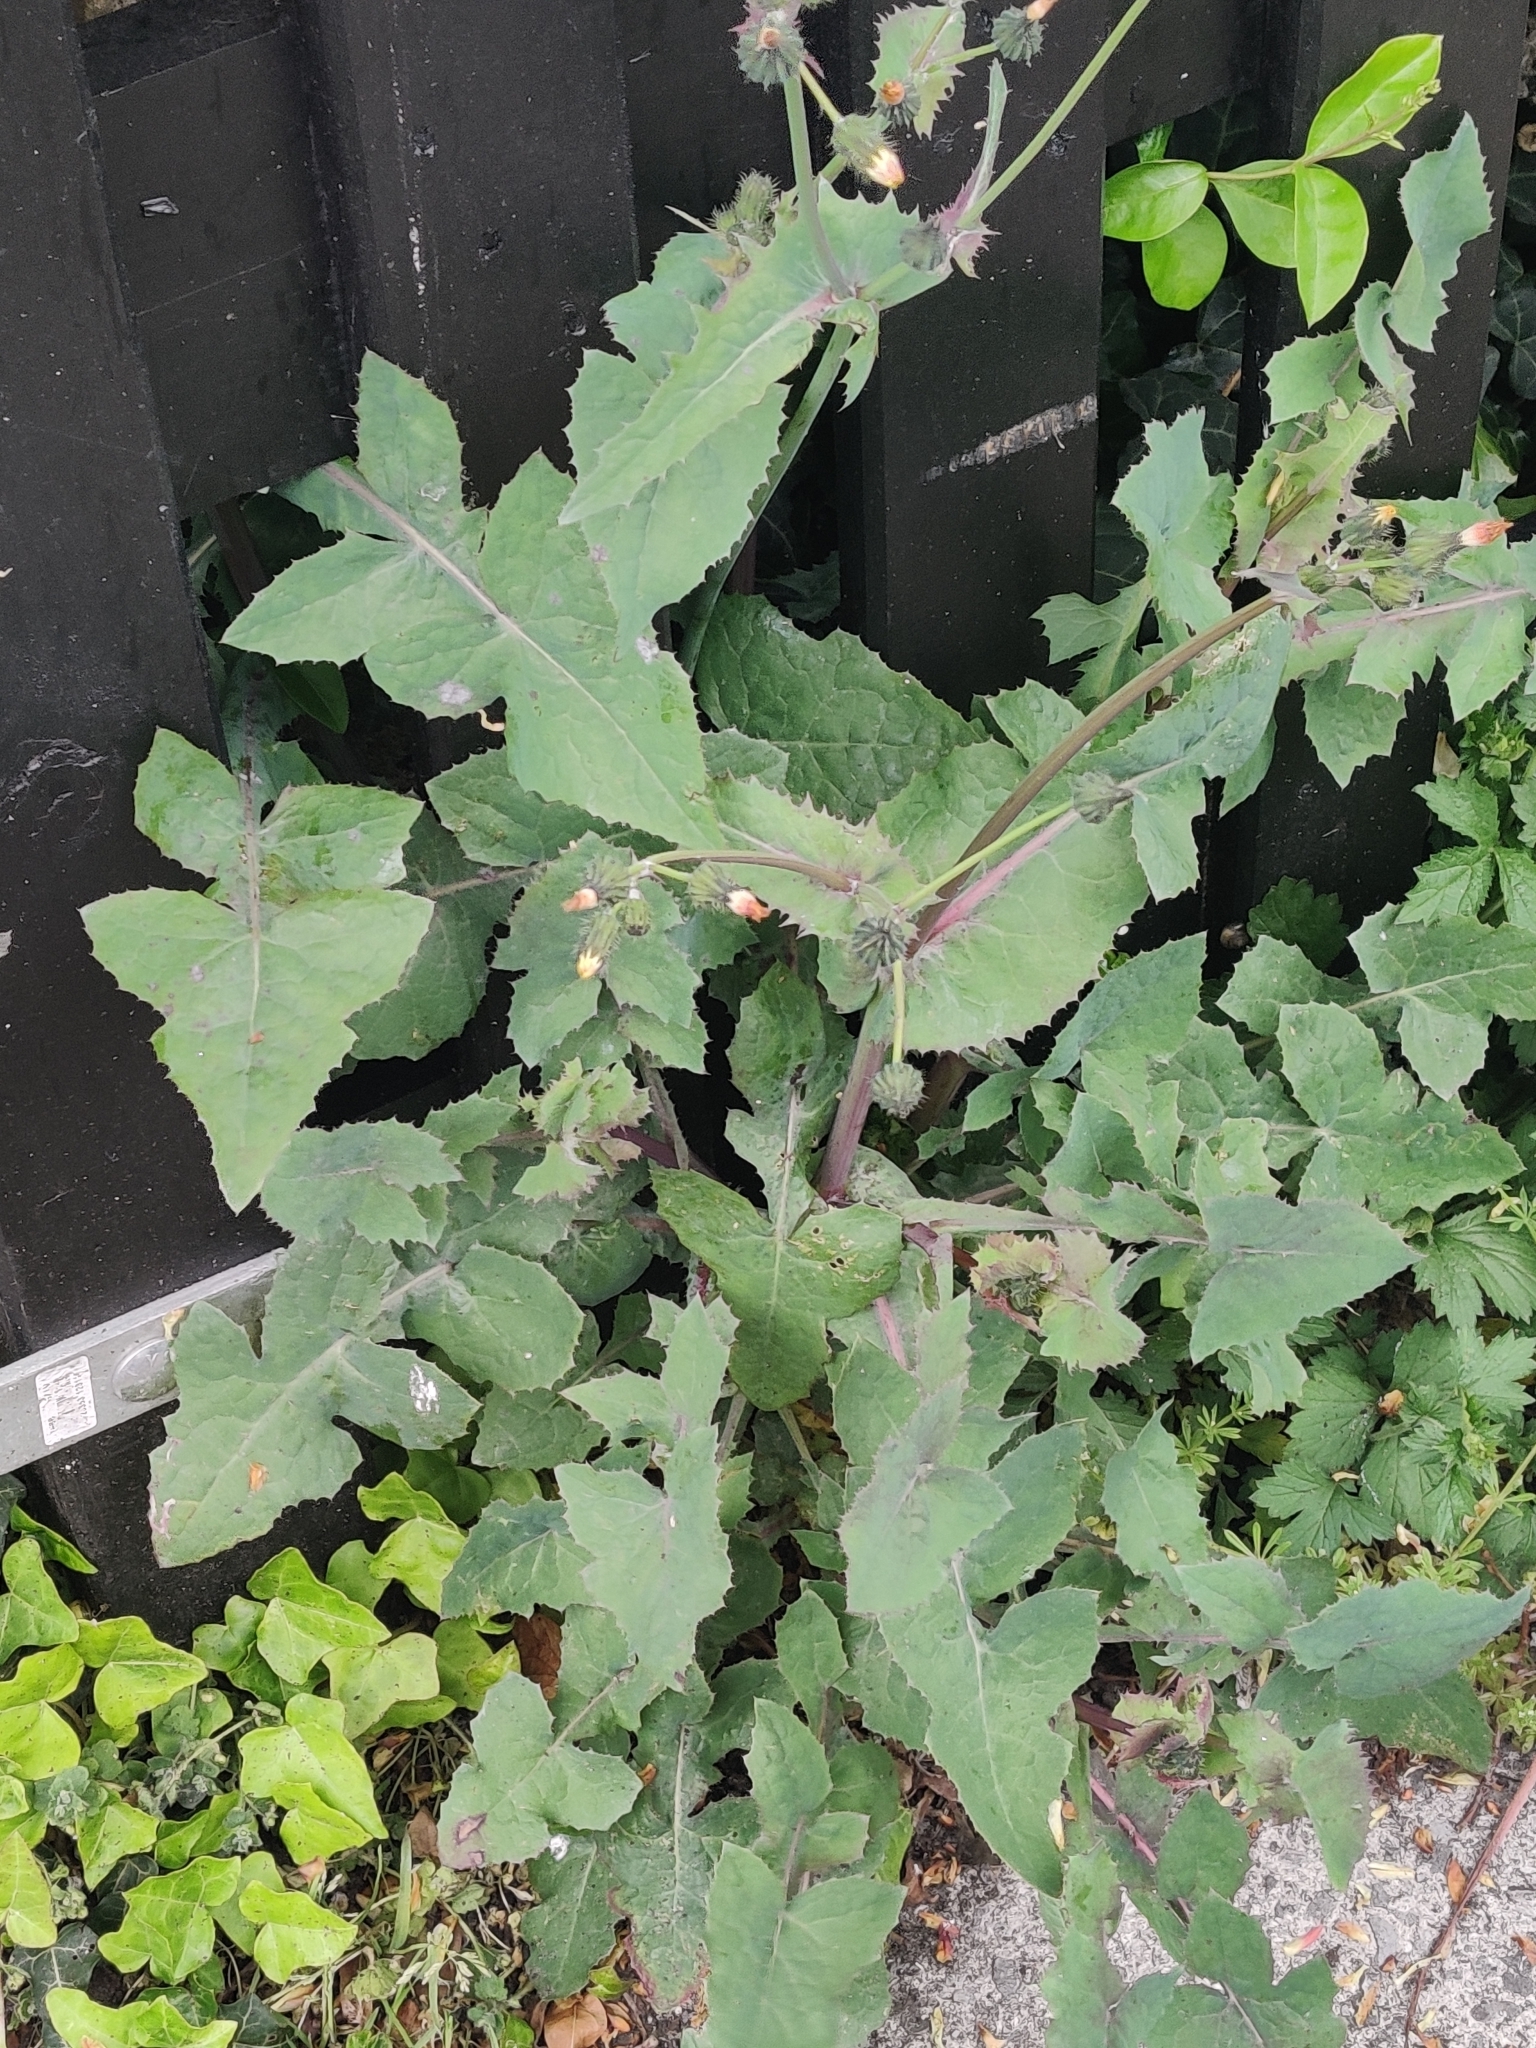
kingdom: Plantae
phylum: Tracheophyta
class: Magnoliopsida
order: Asterales
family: Asteraceae
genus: Sonchus
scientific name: Sonchus oleraceus
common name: Common sowthistle
